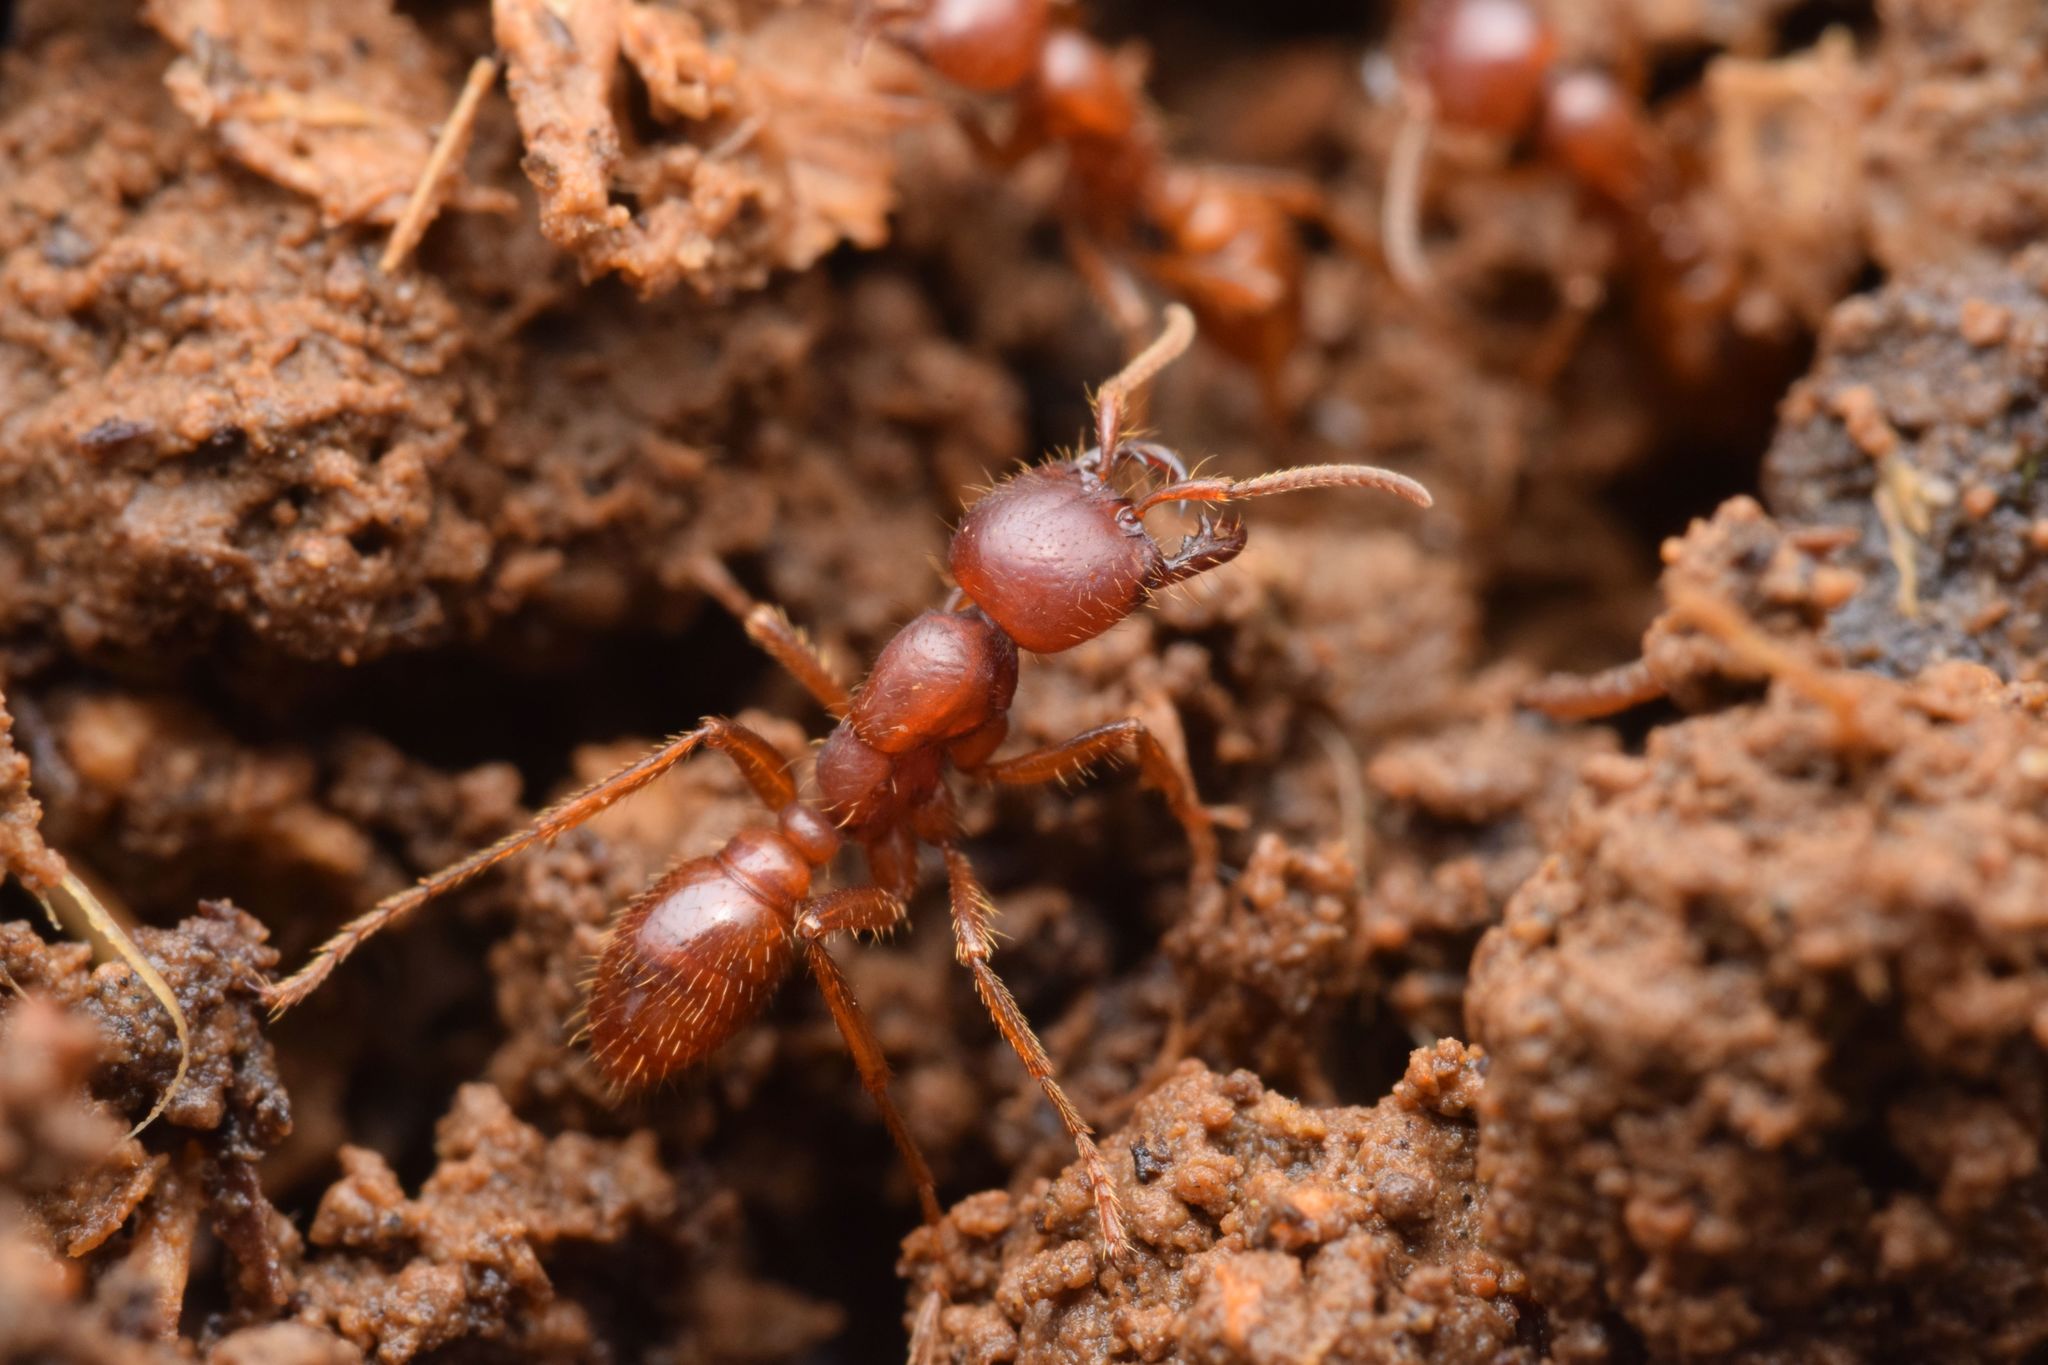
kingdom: Animalia
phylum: Arthropoda
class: Insecta
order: Hymenoptera
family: Formicidae
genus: Cheliomyrmex
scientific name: Cheliomyrmex andicola
